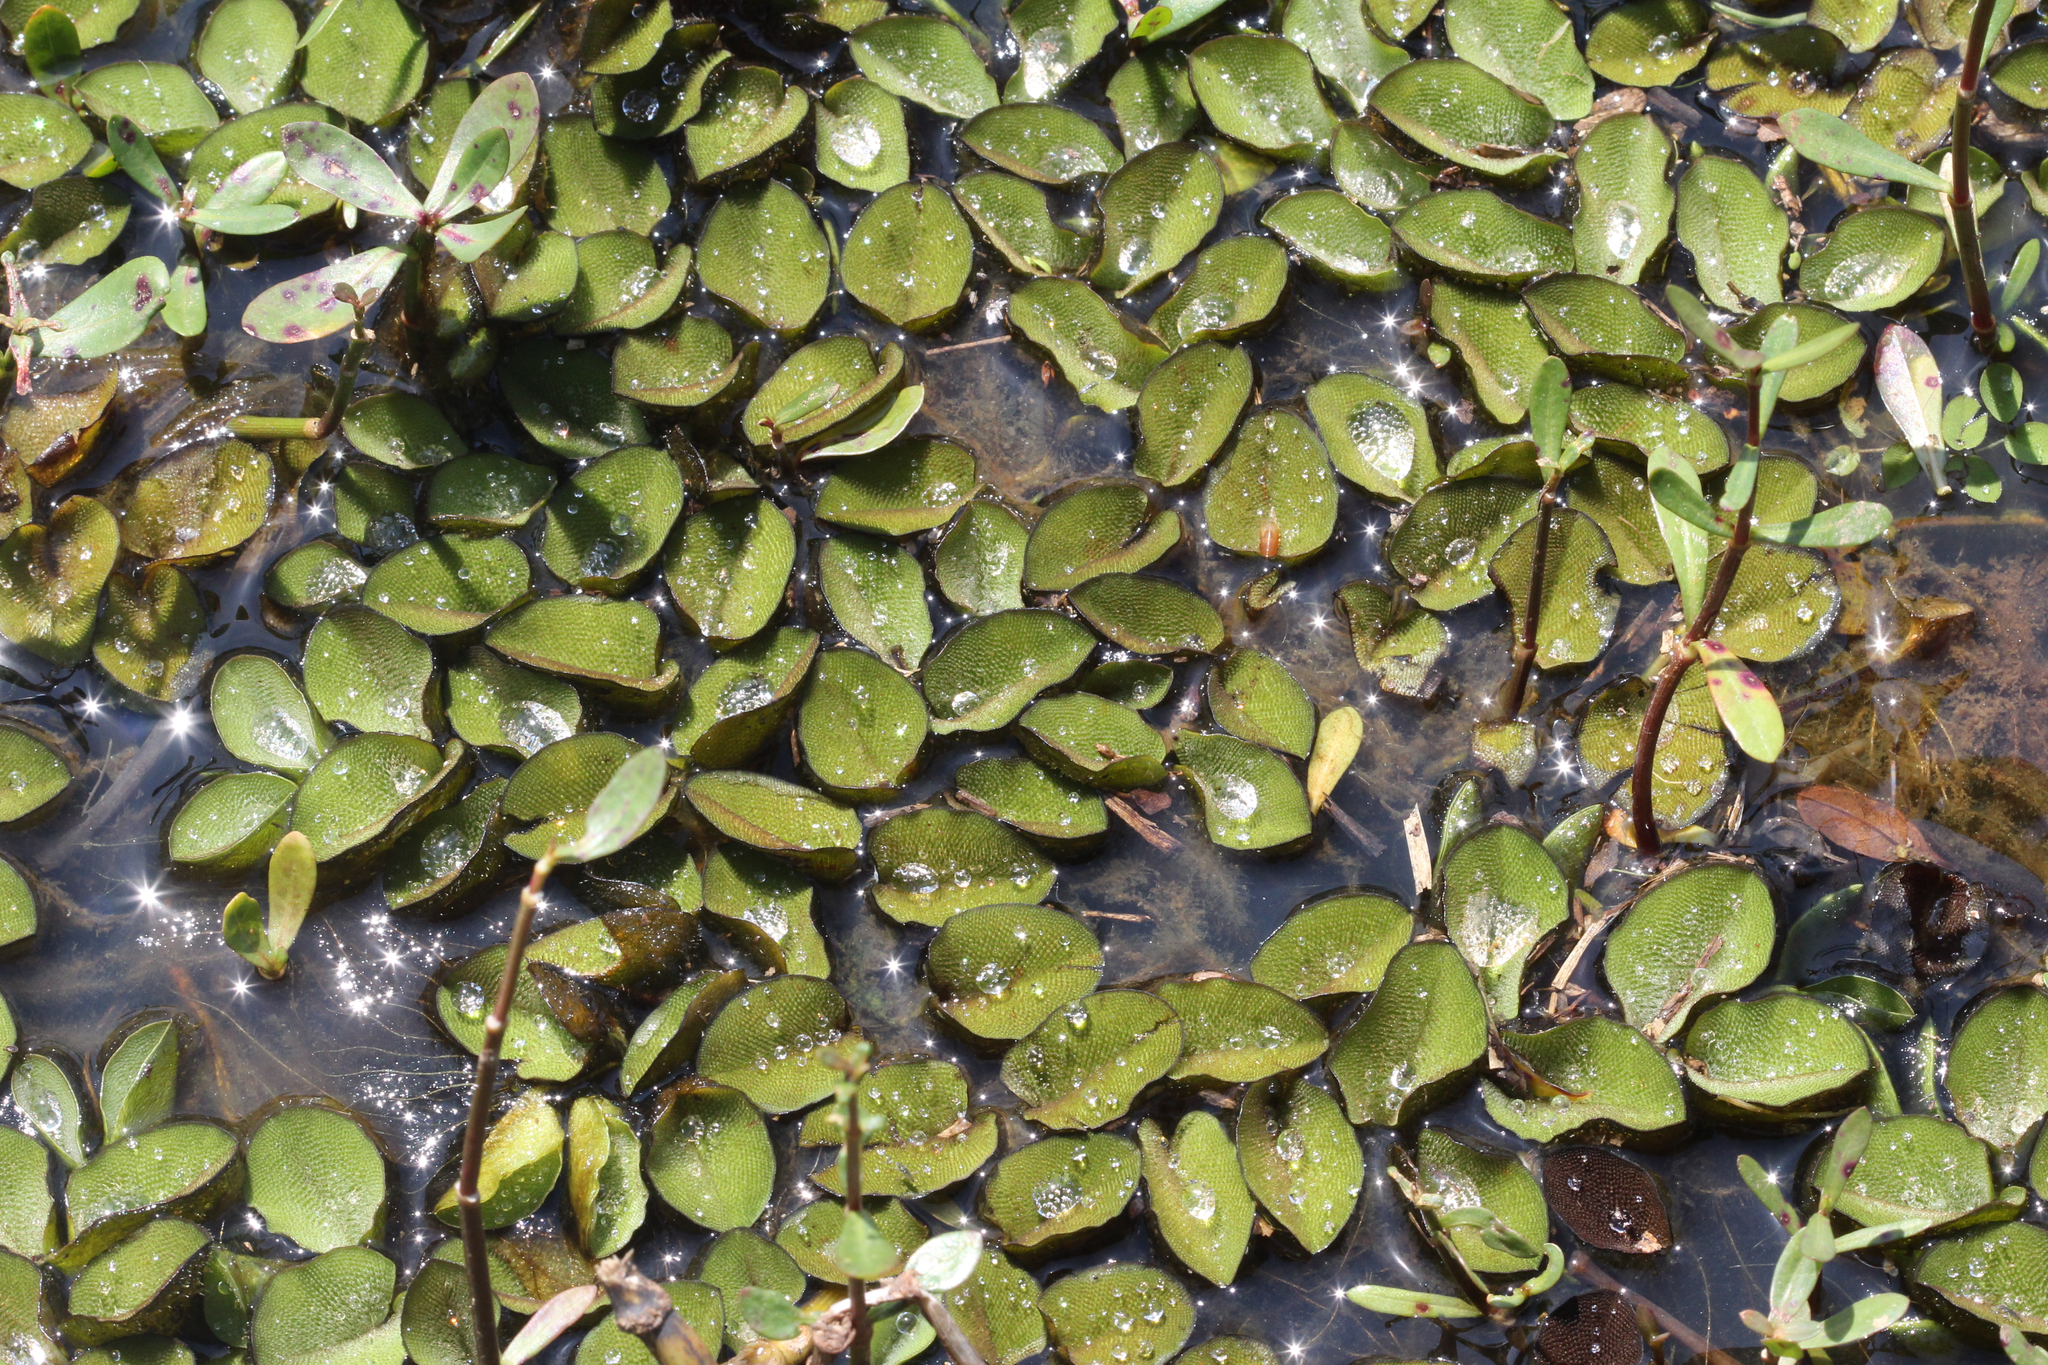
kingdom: Plantae
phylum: Tracheophyta
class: Polypodiopsida
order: Salviniales
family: Salviniaceae
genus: Salvinia
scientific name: Salvinia molesta
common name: Kariba weed
